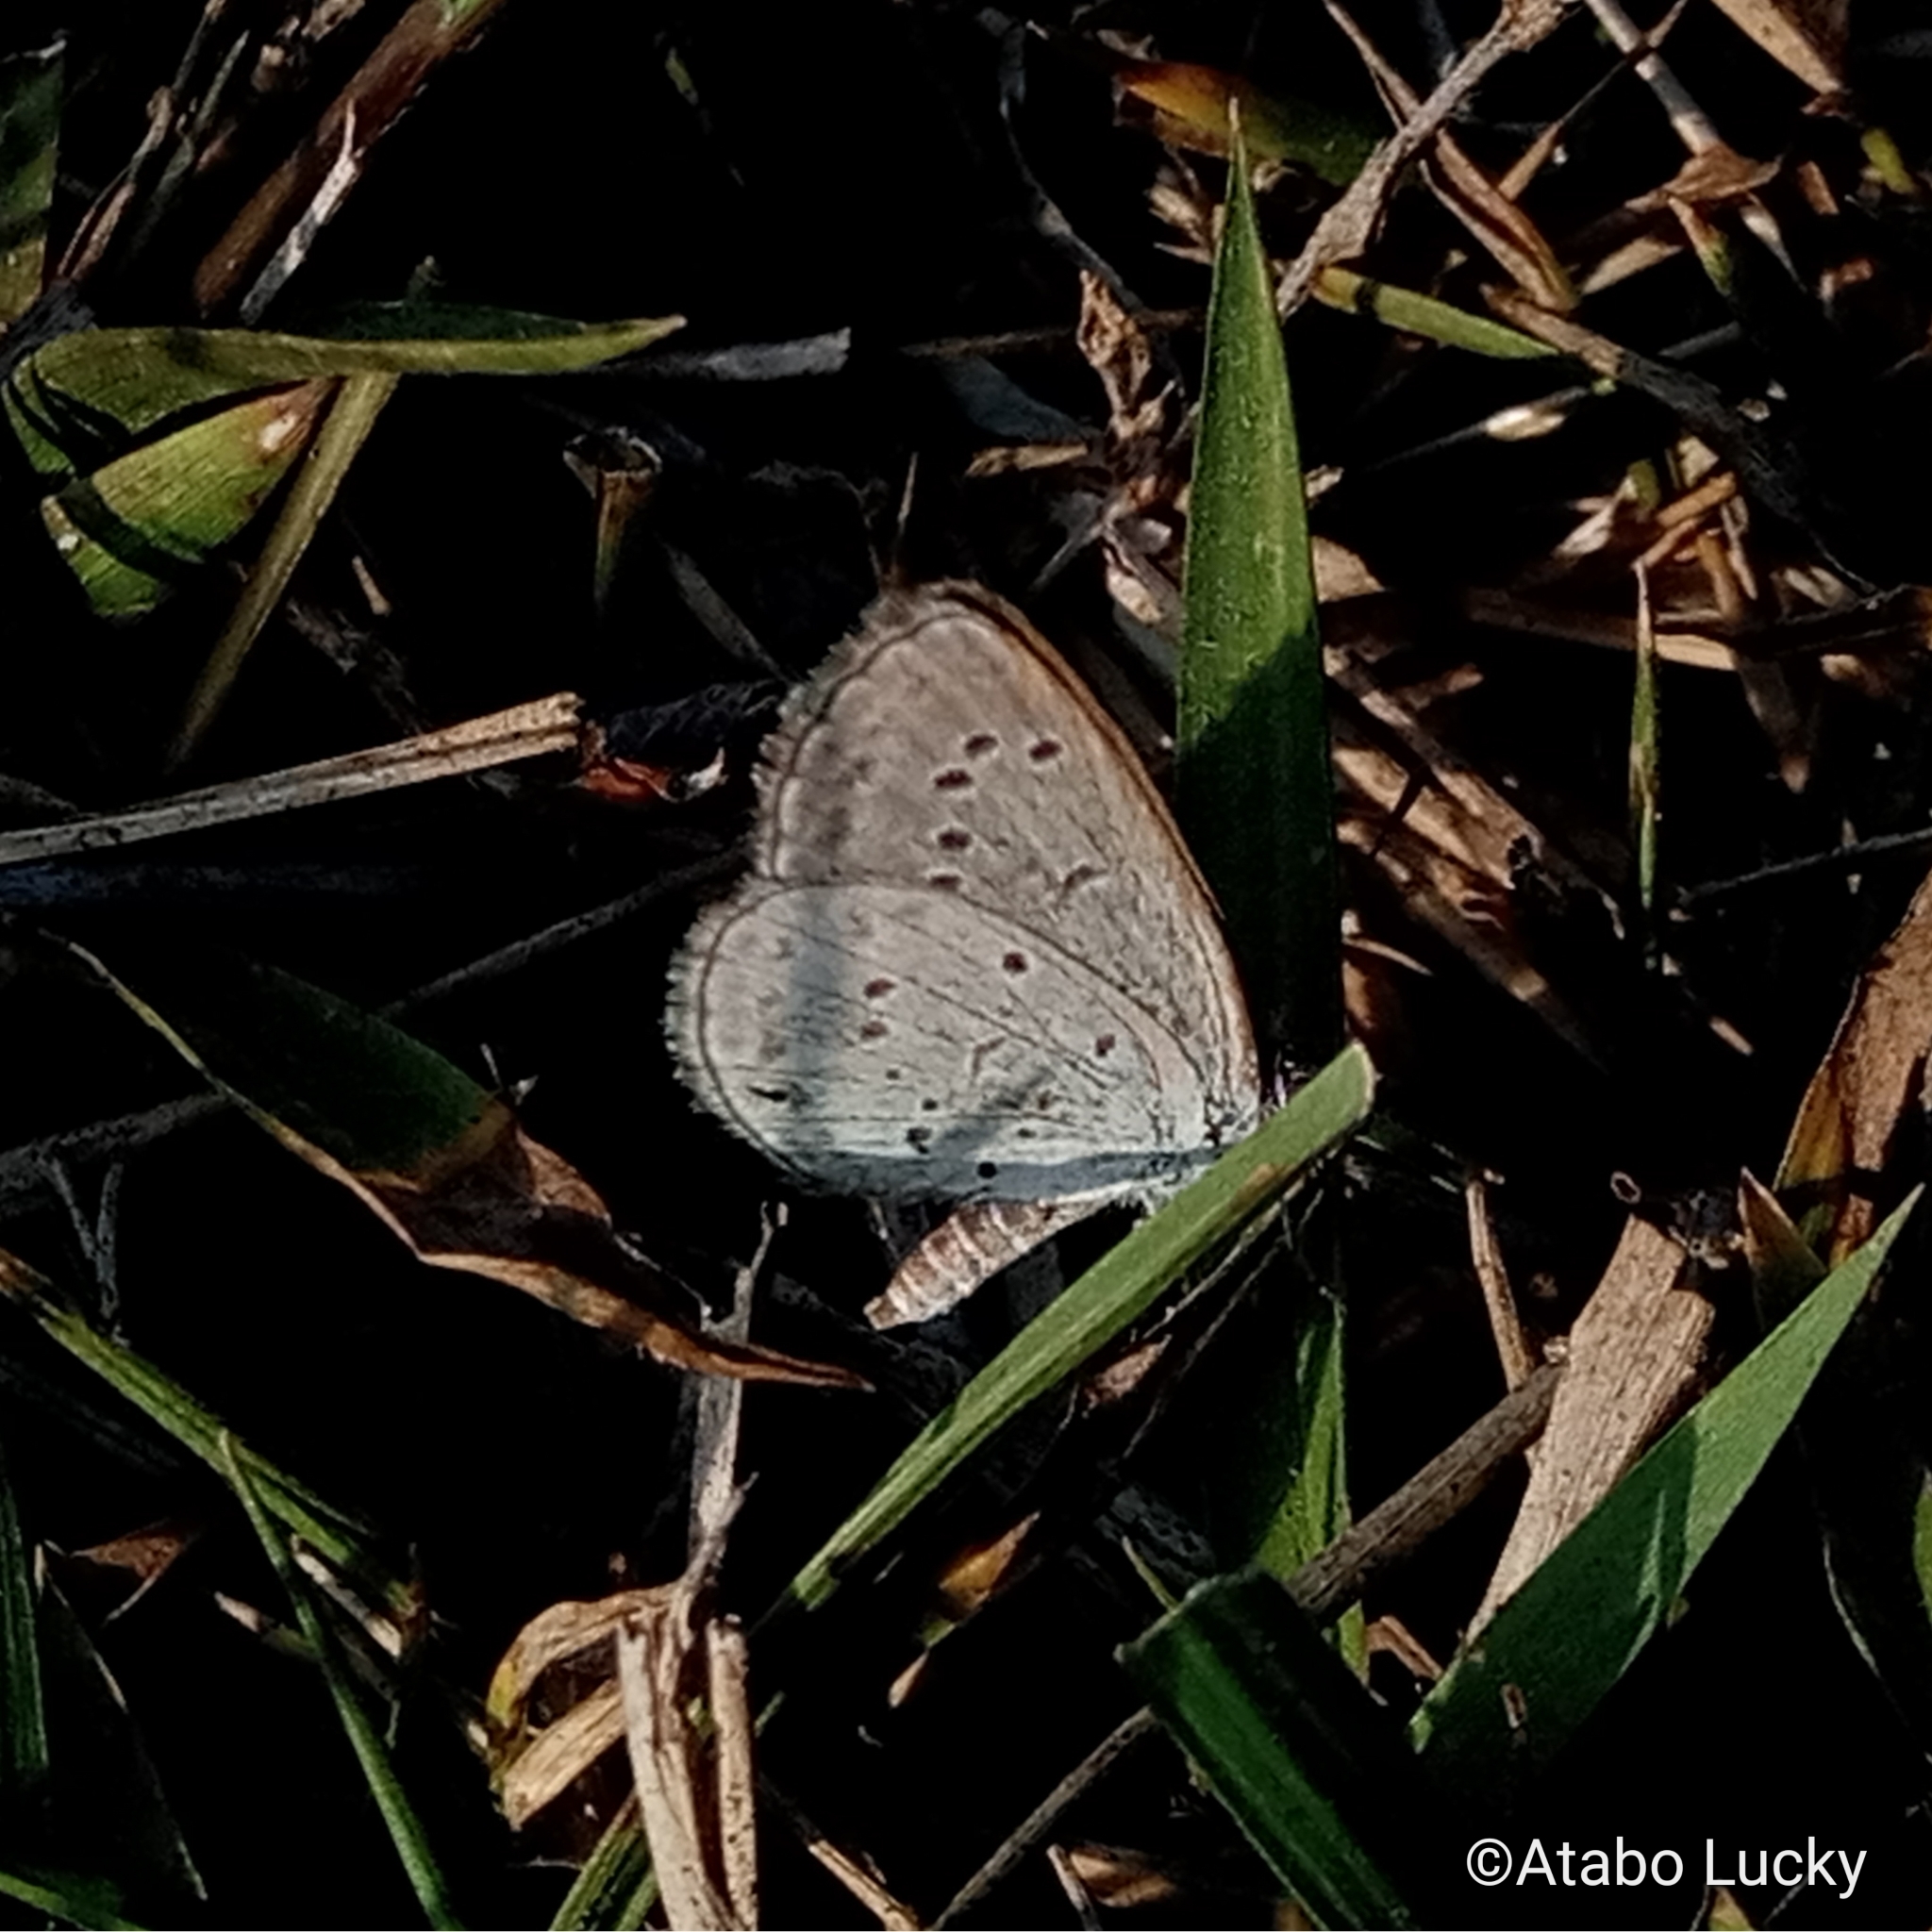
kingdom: Animalia
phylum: Arthropoda
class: Insecta
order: Lepidoptera
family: Lycaenidae
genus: Zizina
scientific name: Zizina antanossa
